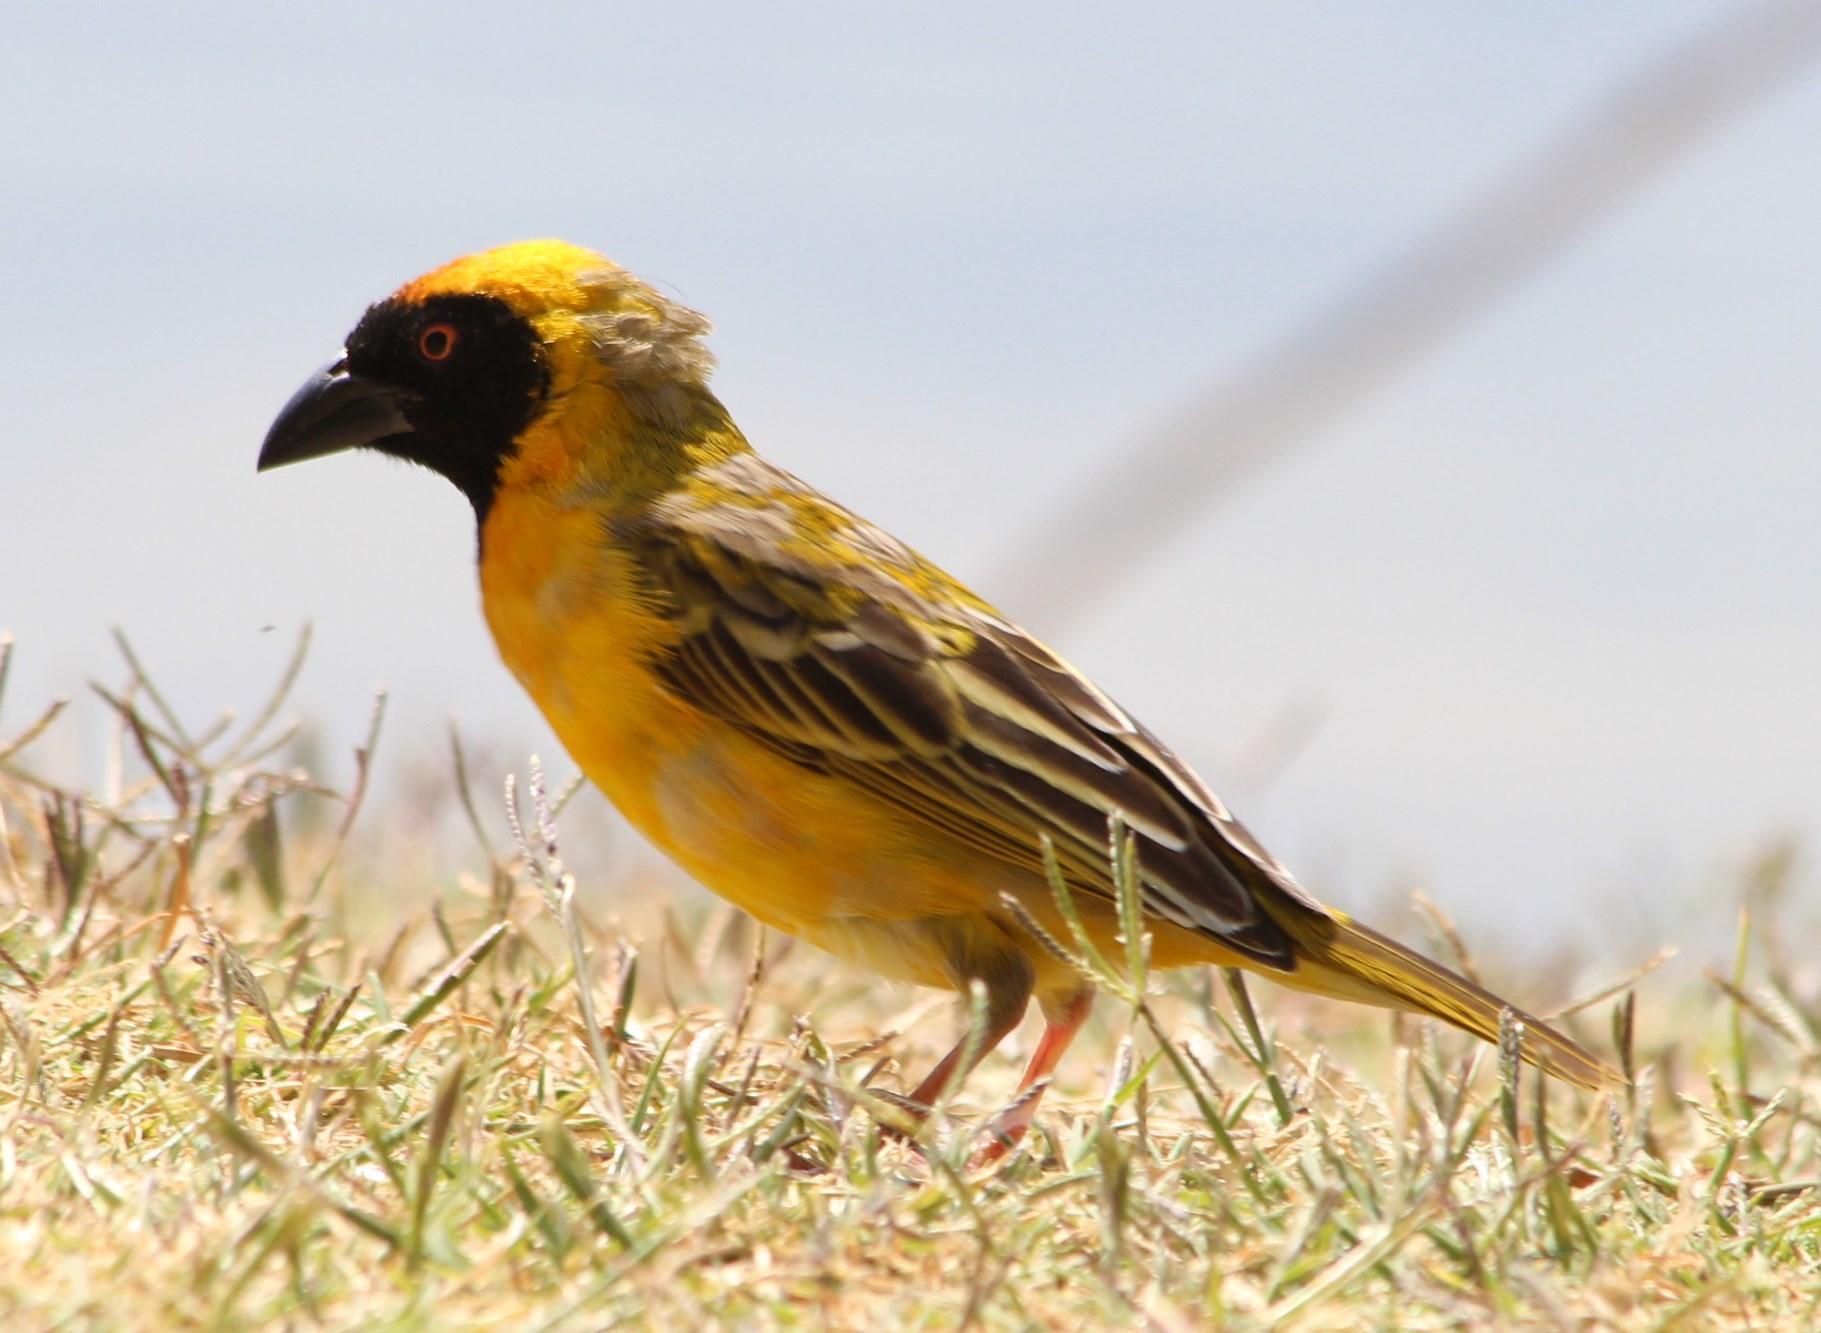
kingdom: Animalia
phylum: Chordata
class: Aves
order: Passeriformes
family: Ploceidae
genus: Ploceus
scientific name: Ploceus velatus
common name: Southern masked weaver
